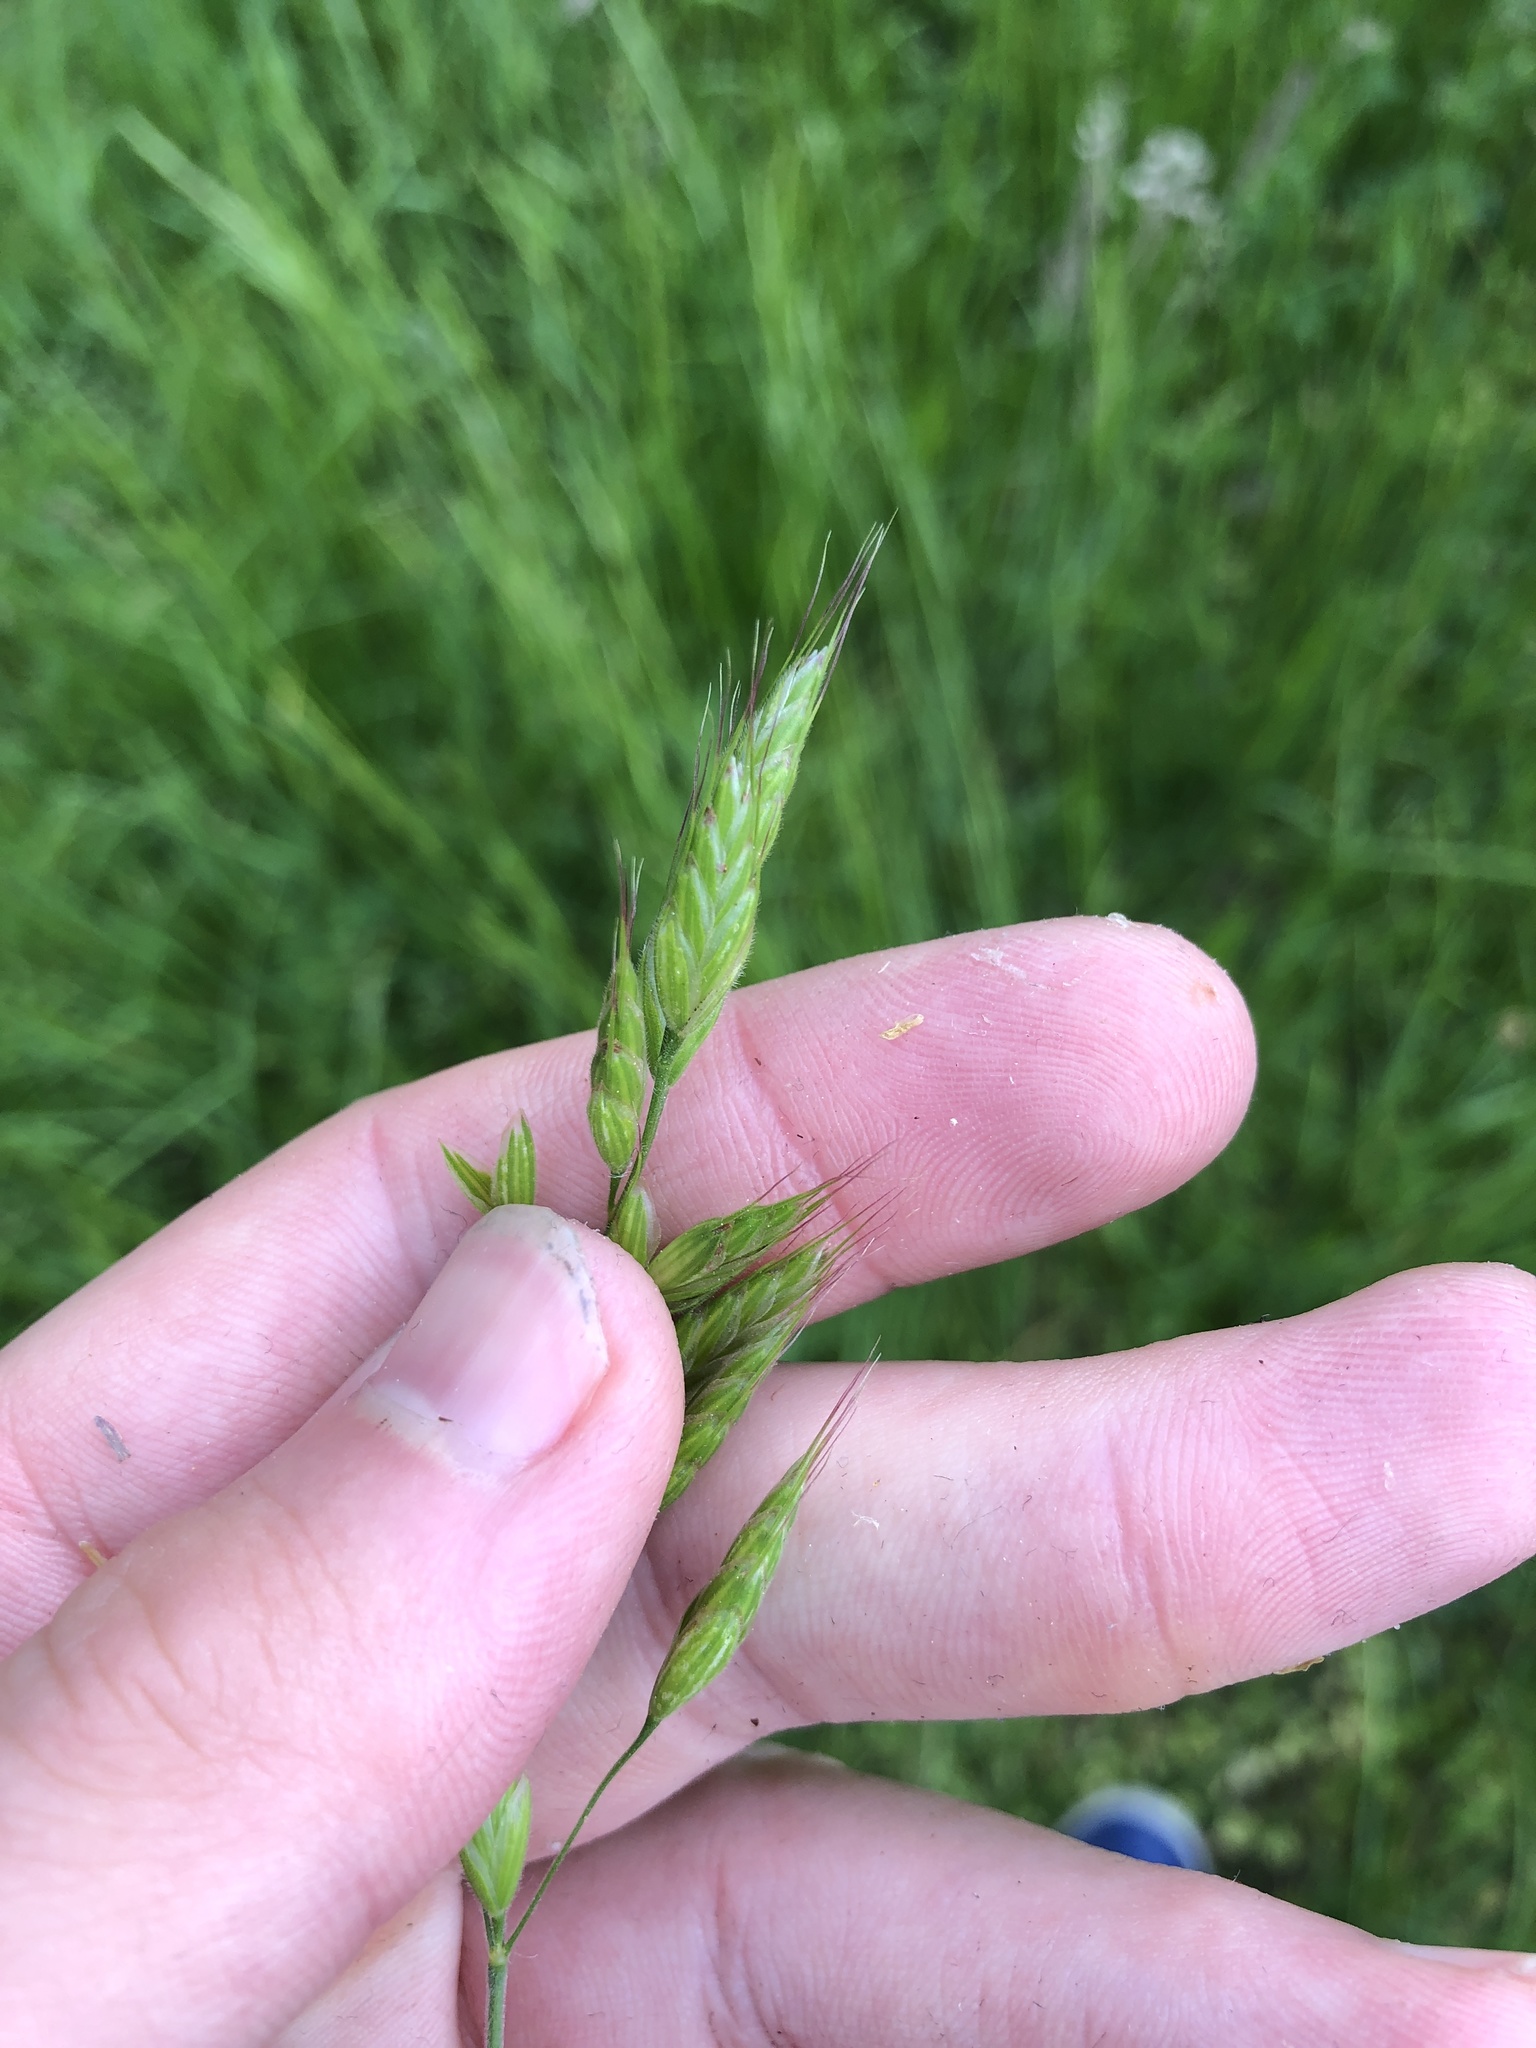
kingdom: Plantae
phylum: Tracheophyta
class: Liliopsida
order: Poales
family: Poaceae
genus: Bromus
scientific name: Bromus hordeaceus
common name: Soft brome
